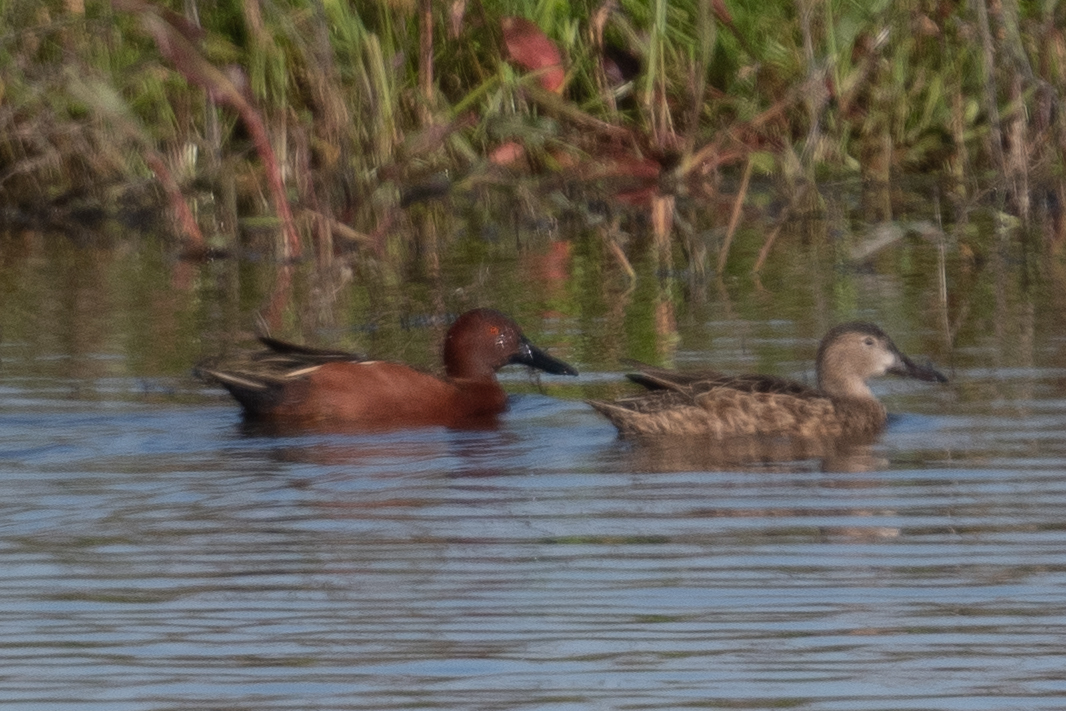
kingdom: Animalia
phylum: Chordata
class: Aves
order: Anseriformes
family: Anatidae
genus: Spatula
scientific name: Spatula cyanoptera
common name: Cinnamon teal
